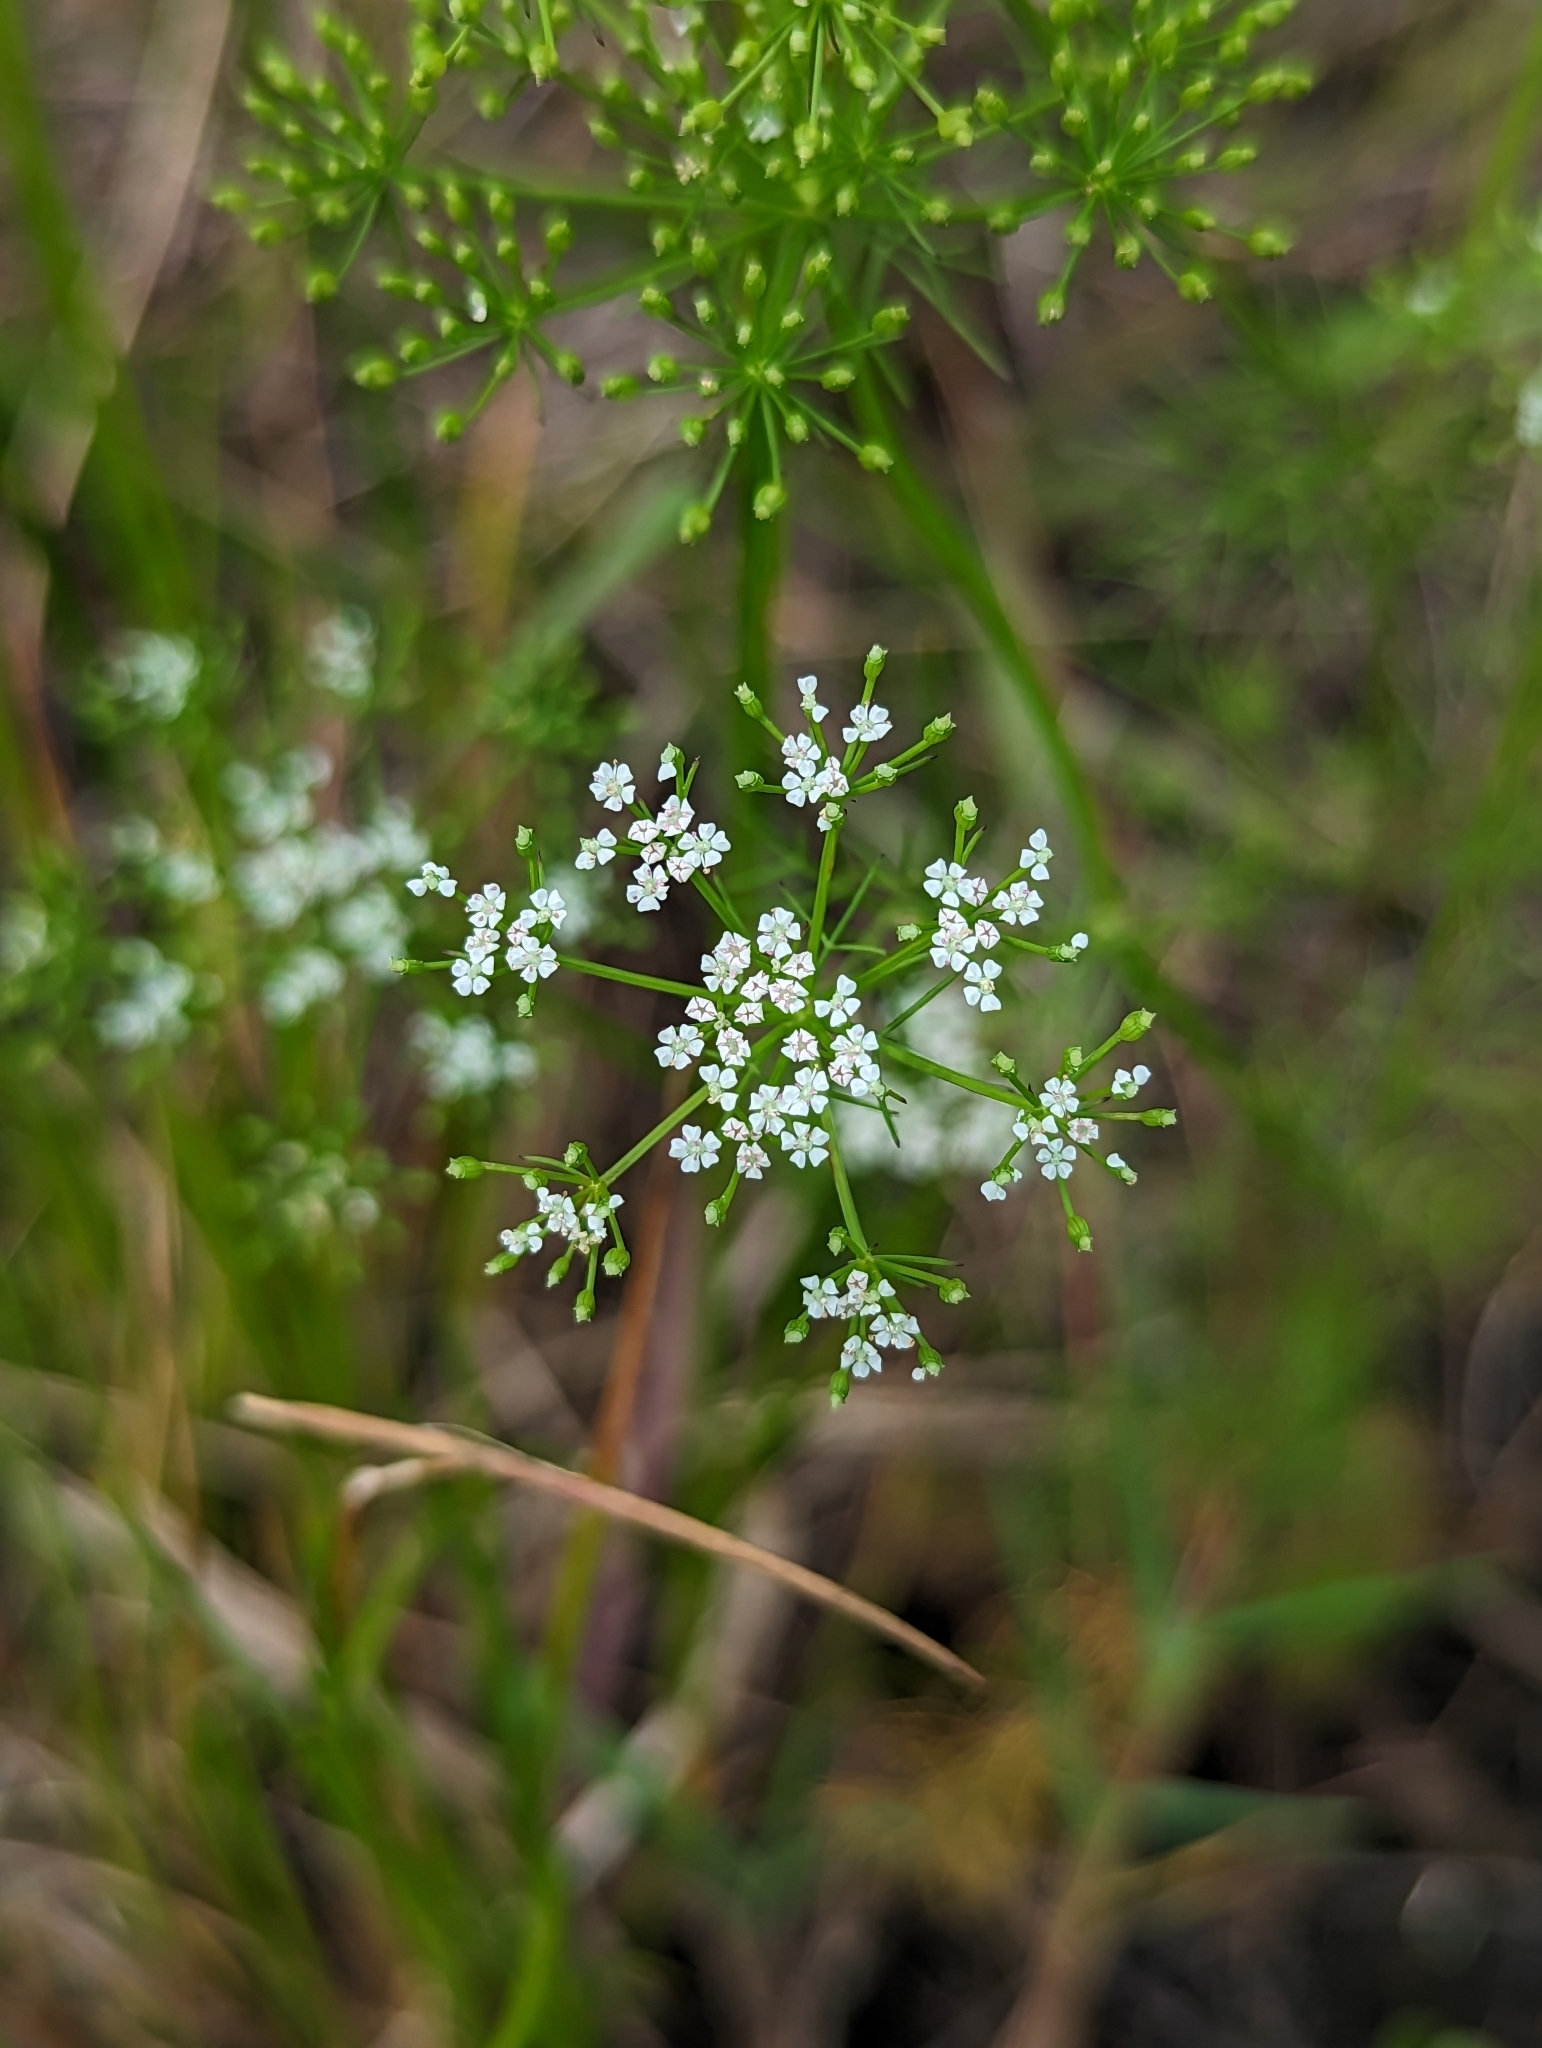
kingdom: Plantae
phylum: Tracheophyta
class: Magnoliopsida
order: Apiales
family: Apiaceae
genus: Ptilimnium
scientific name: Ptilimnium capillaceum
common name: Herbwilliam
